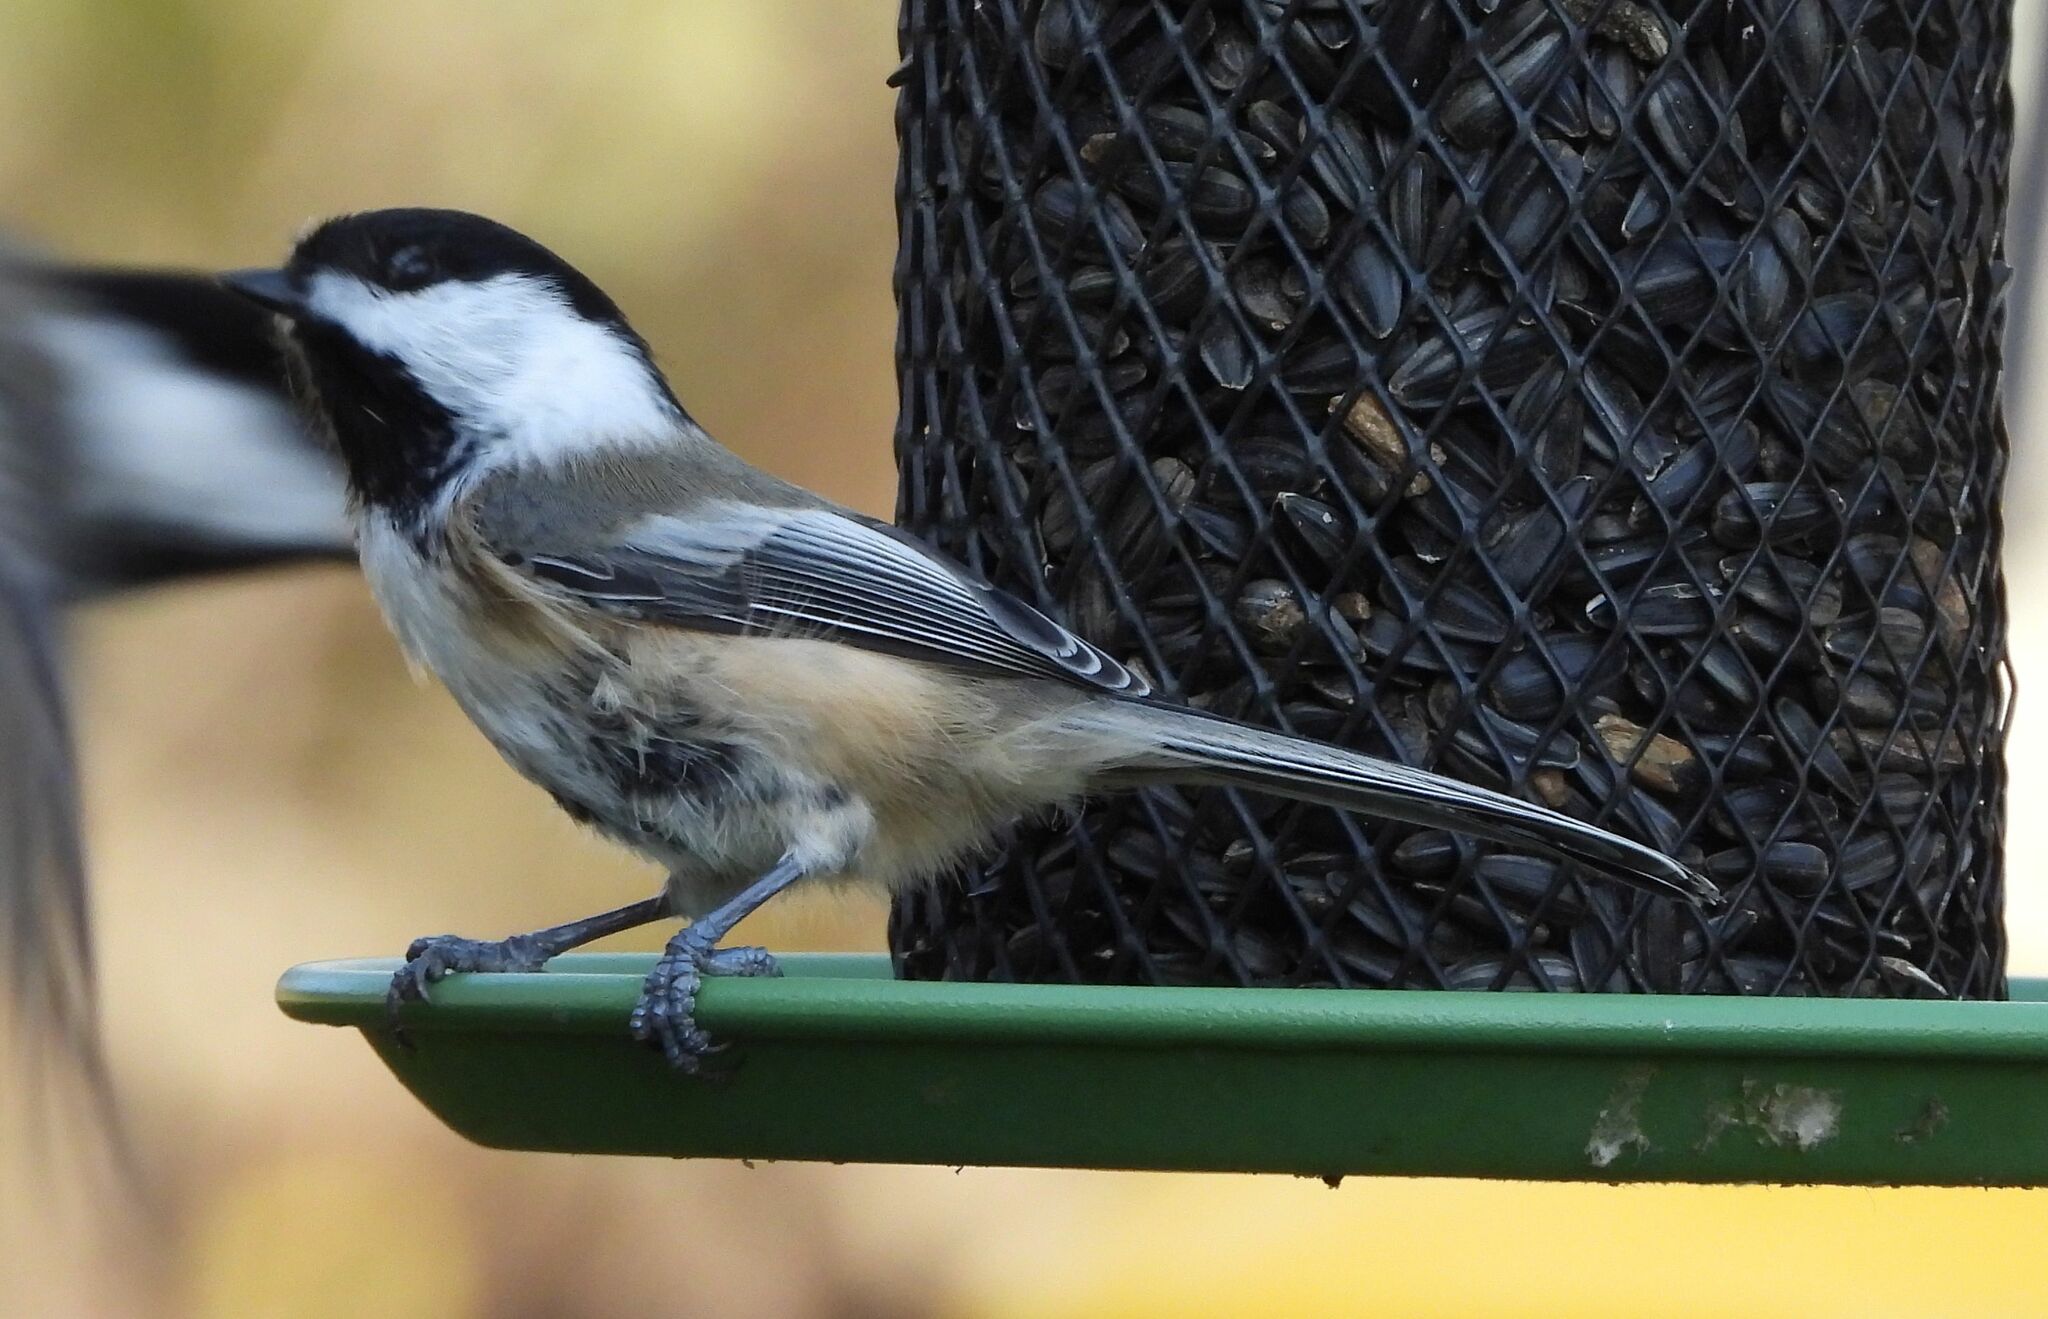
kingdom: Animalia
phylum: Chordata
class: Aves
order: Passeriformes
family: Paridae
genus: Poecile
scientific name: Poecile atricapillus
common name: Black-capped chickadee
